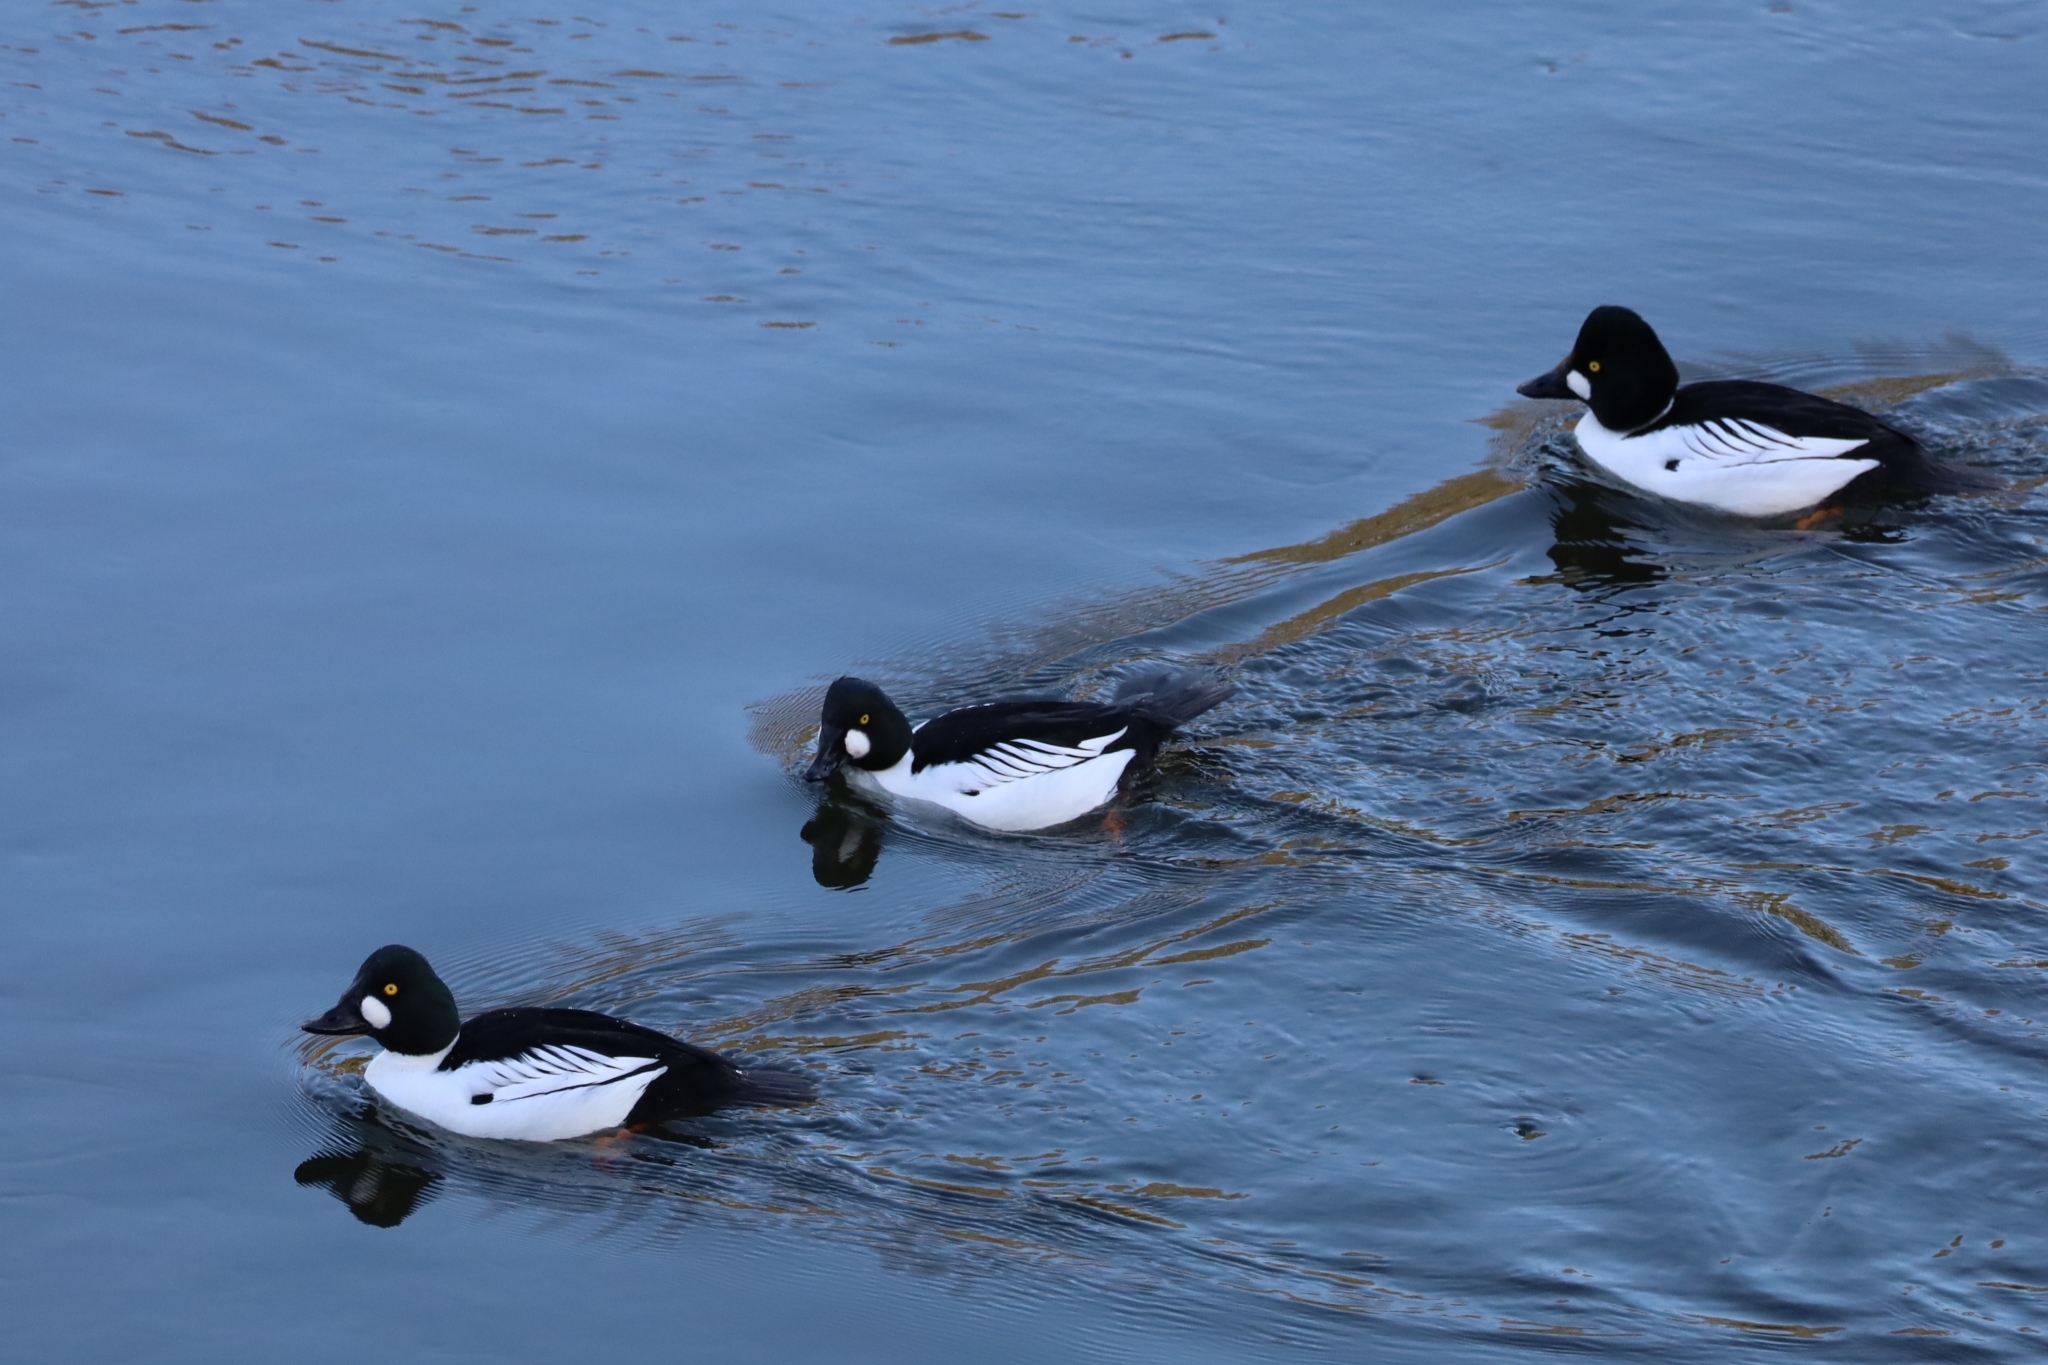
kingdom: Animalia
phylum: Chordata
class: Aves
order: Anseriformes
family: Anatidae
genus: Bucephala
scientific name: Bucephala clangula
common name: Common goldeneye
